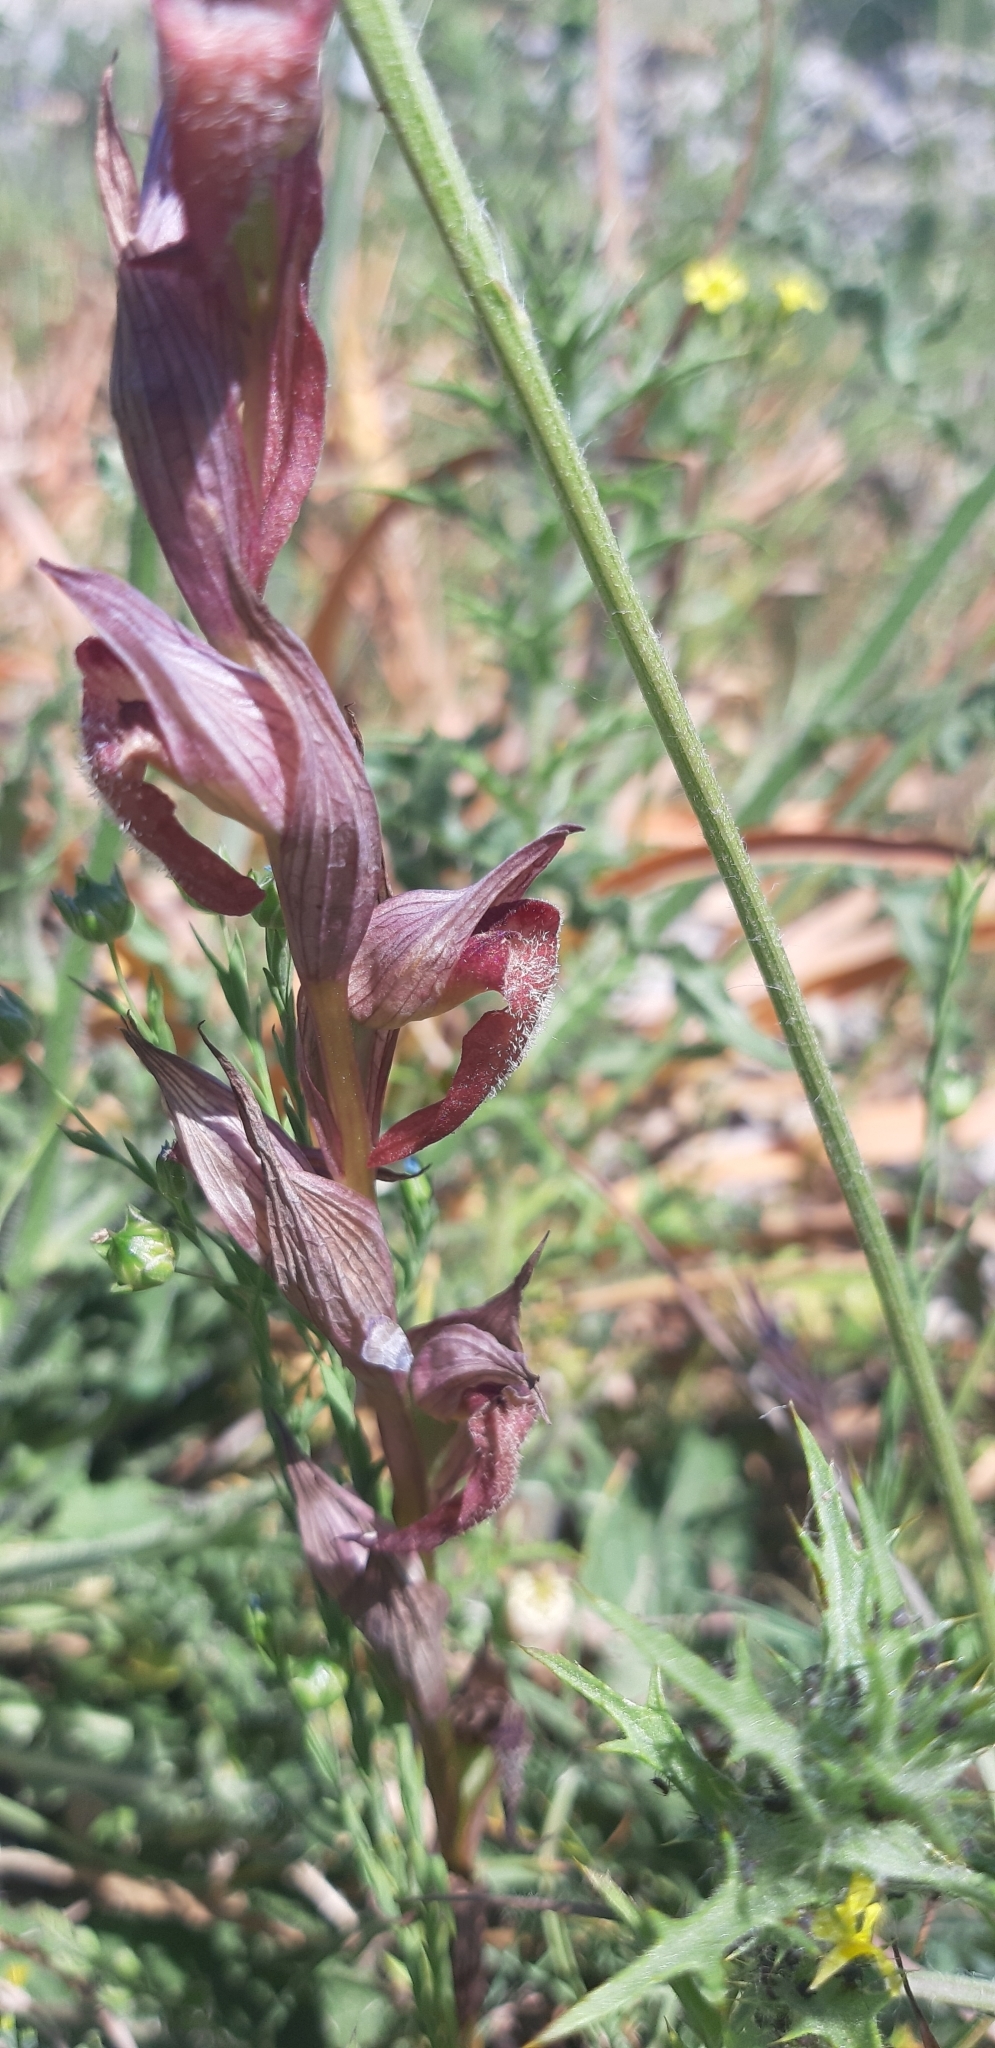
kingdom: Plantae
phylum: Tracheophyta
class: Liliopsida
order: Asparagales
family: Orchidaceae
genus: Serapias
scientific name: Serapias vomeracea
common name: Long-lipped tongue-orchid
